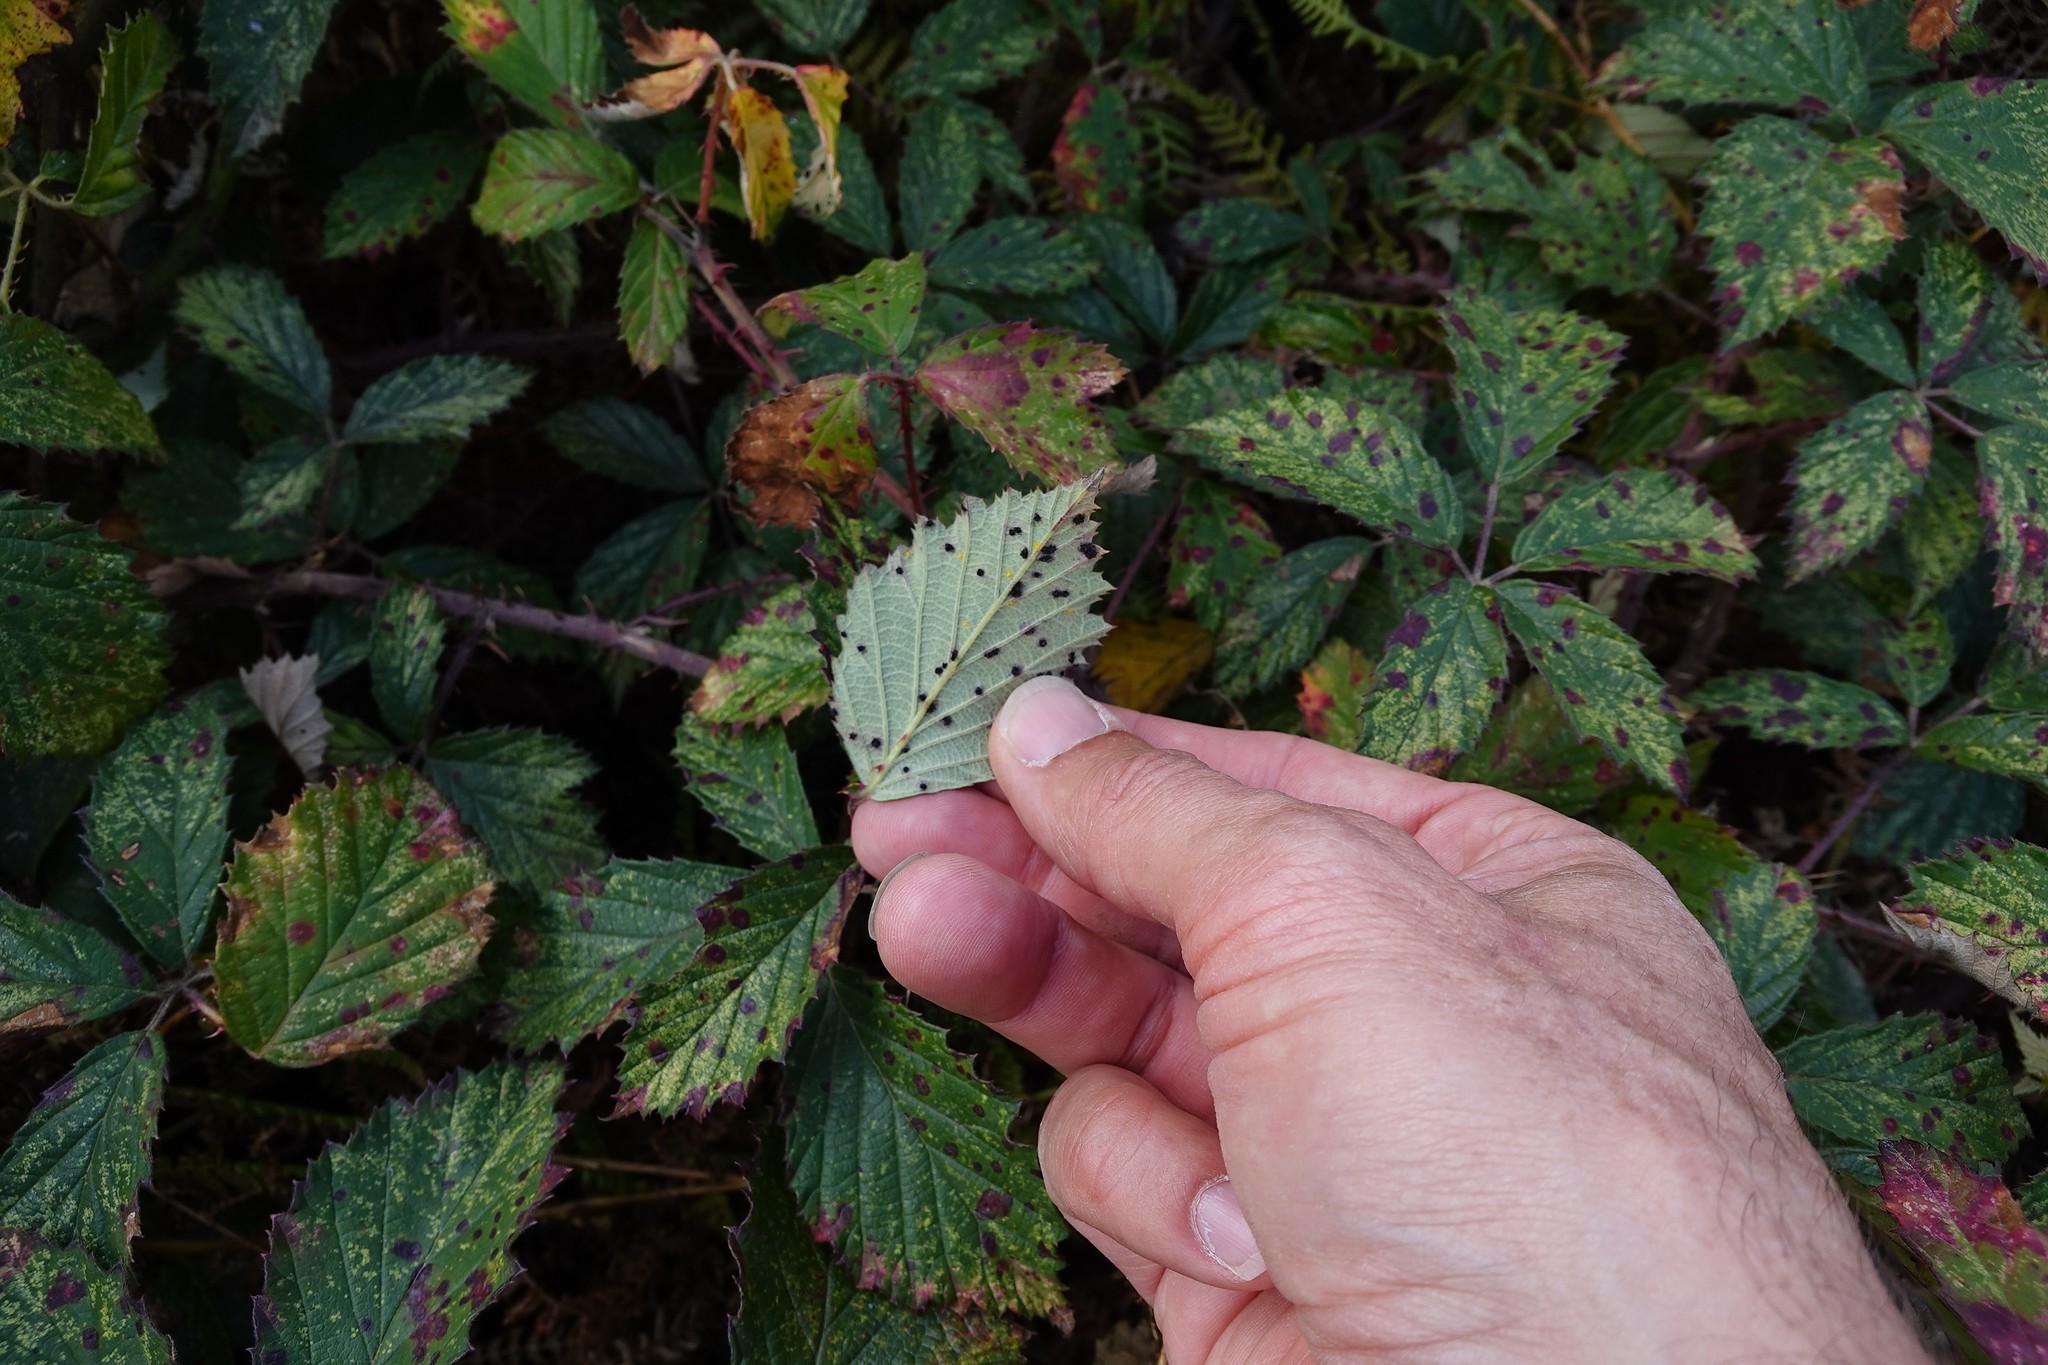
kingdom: Fungi
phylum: Basidiomycota
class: Pucciniomycetes
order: Pucciniales
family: Phragmidiaceae
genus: Phragmidium
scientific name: Phragmidium violaceum
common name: Violet bramble rust
